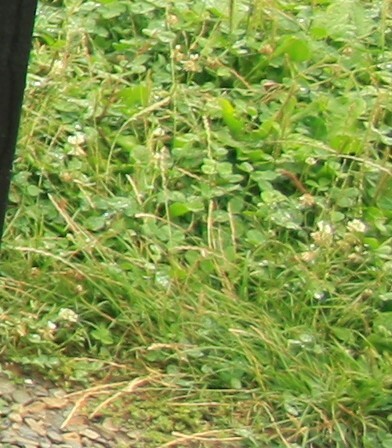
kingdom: Plantae
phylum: Tracheophyta
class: Magnoliopsida
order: Fabales
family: Fabaceae
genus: Trifolium
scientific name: Trifolium repens
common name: White clover
